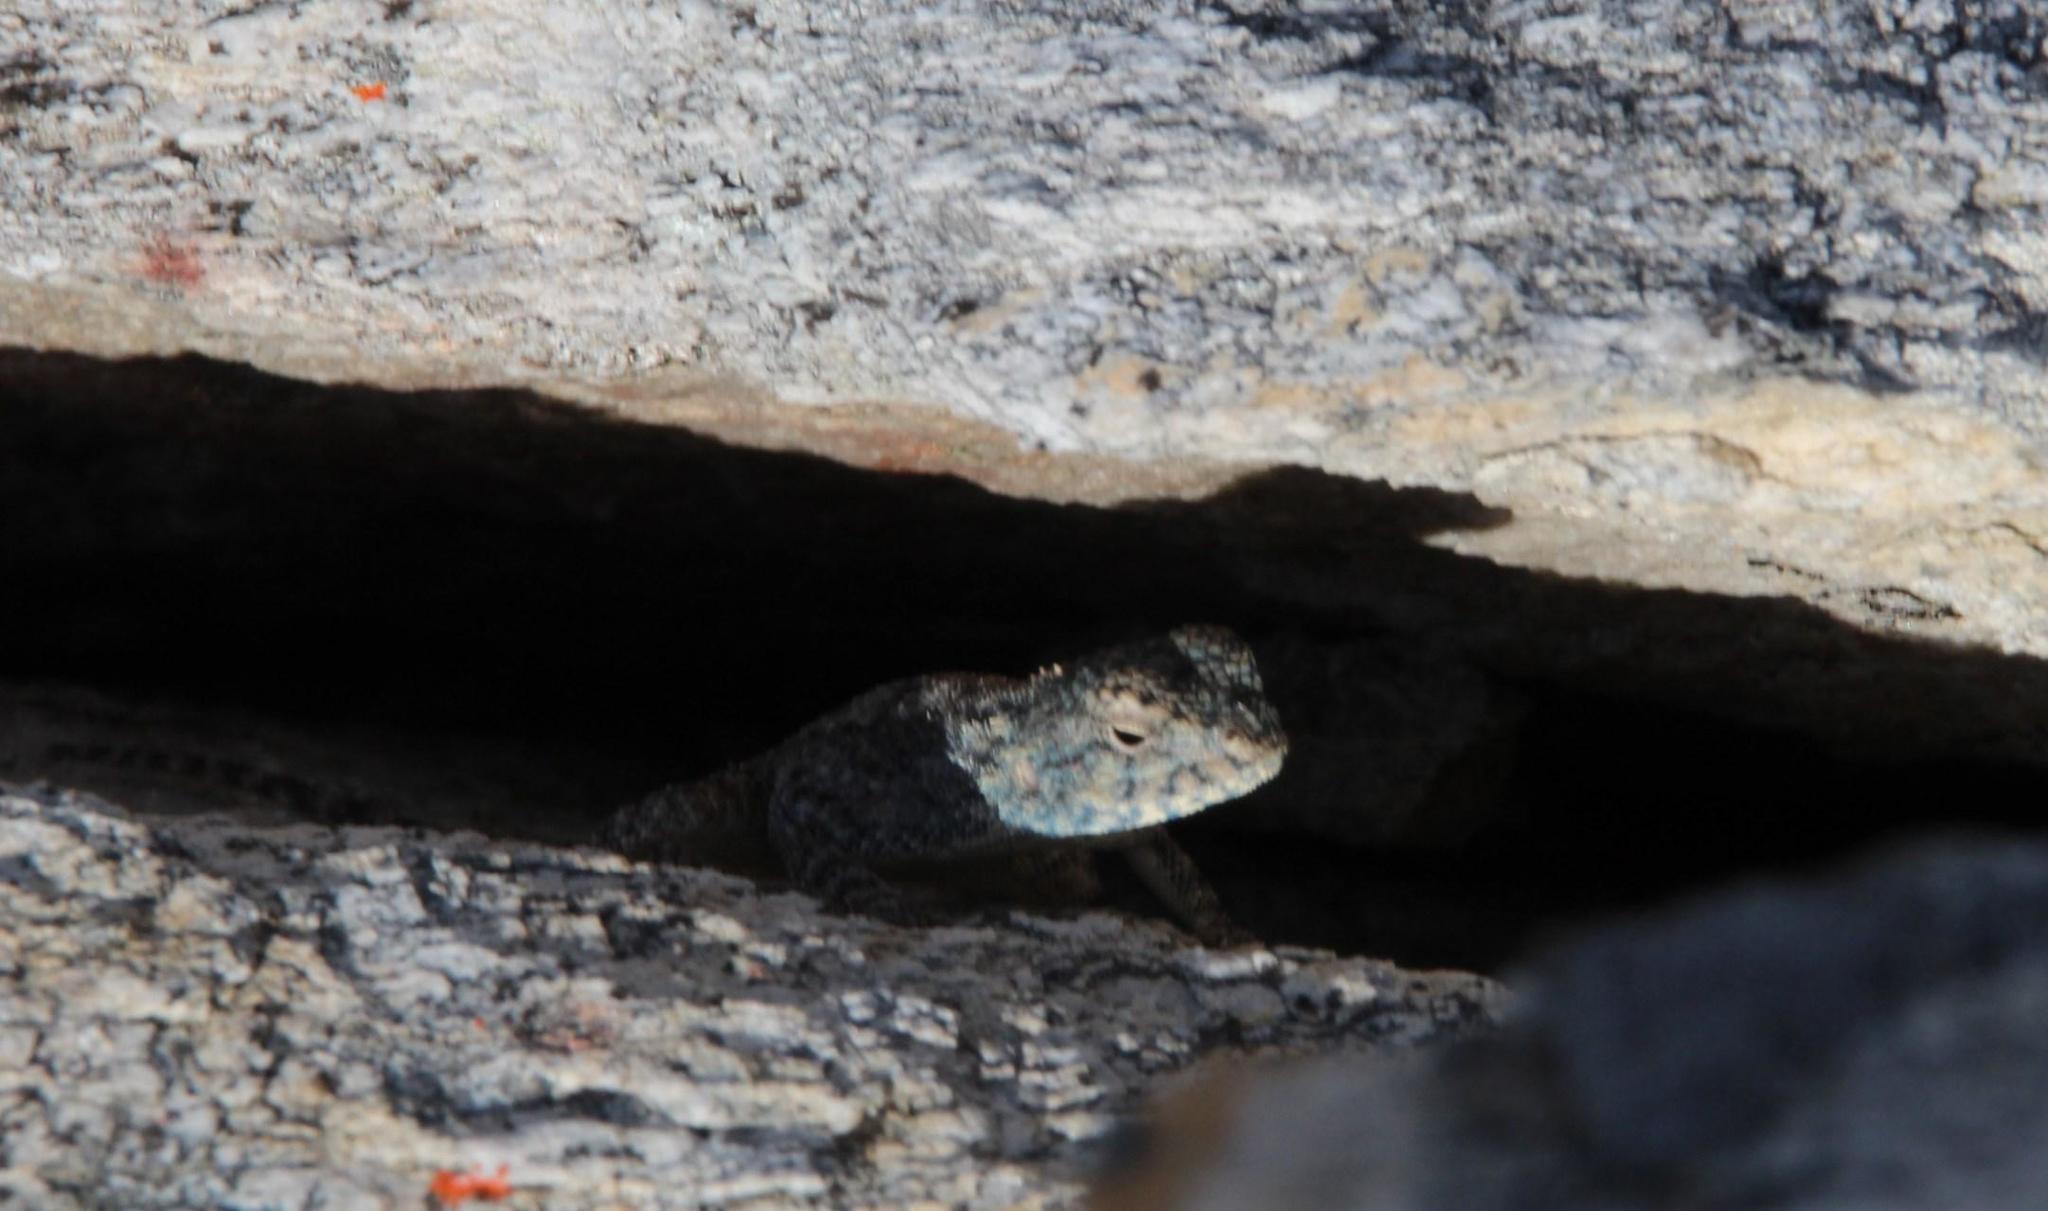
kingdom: Animalia
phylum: Chordata
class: Squamata
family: Agamidae
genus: Agama
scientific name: Agama atra
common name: Southern african rock agama
